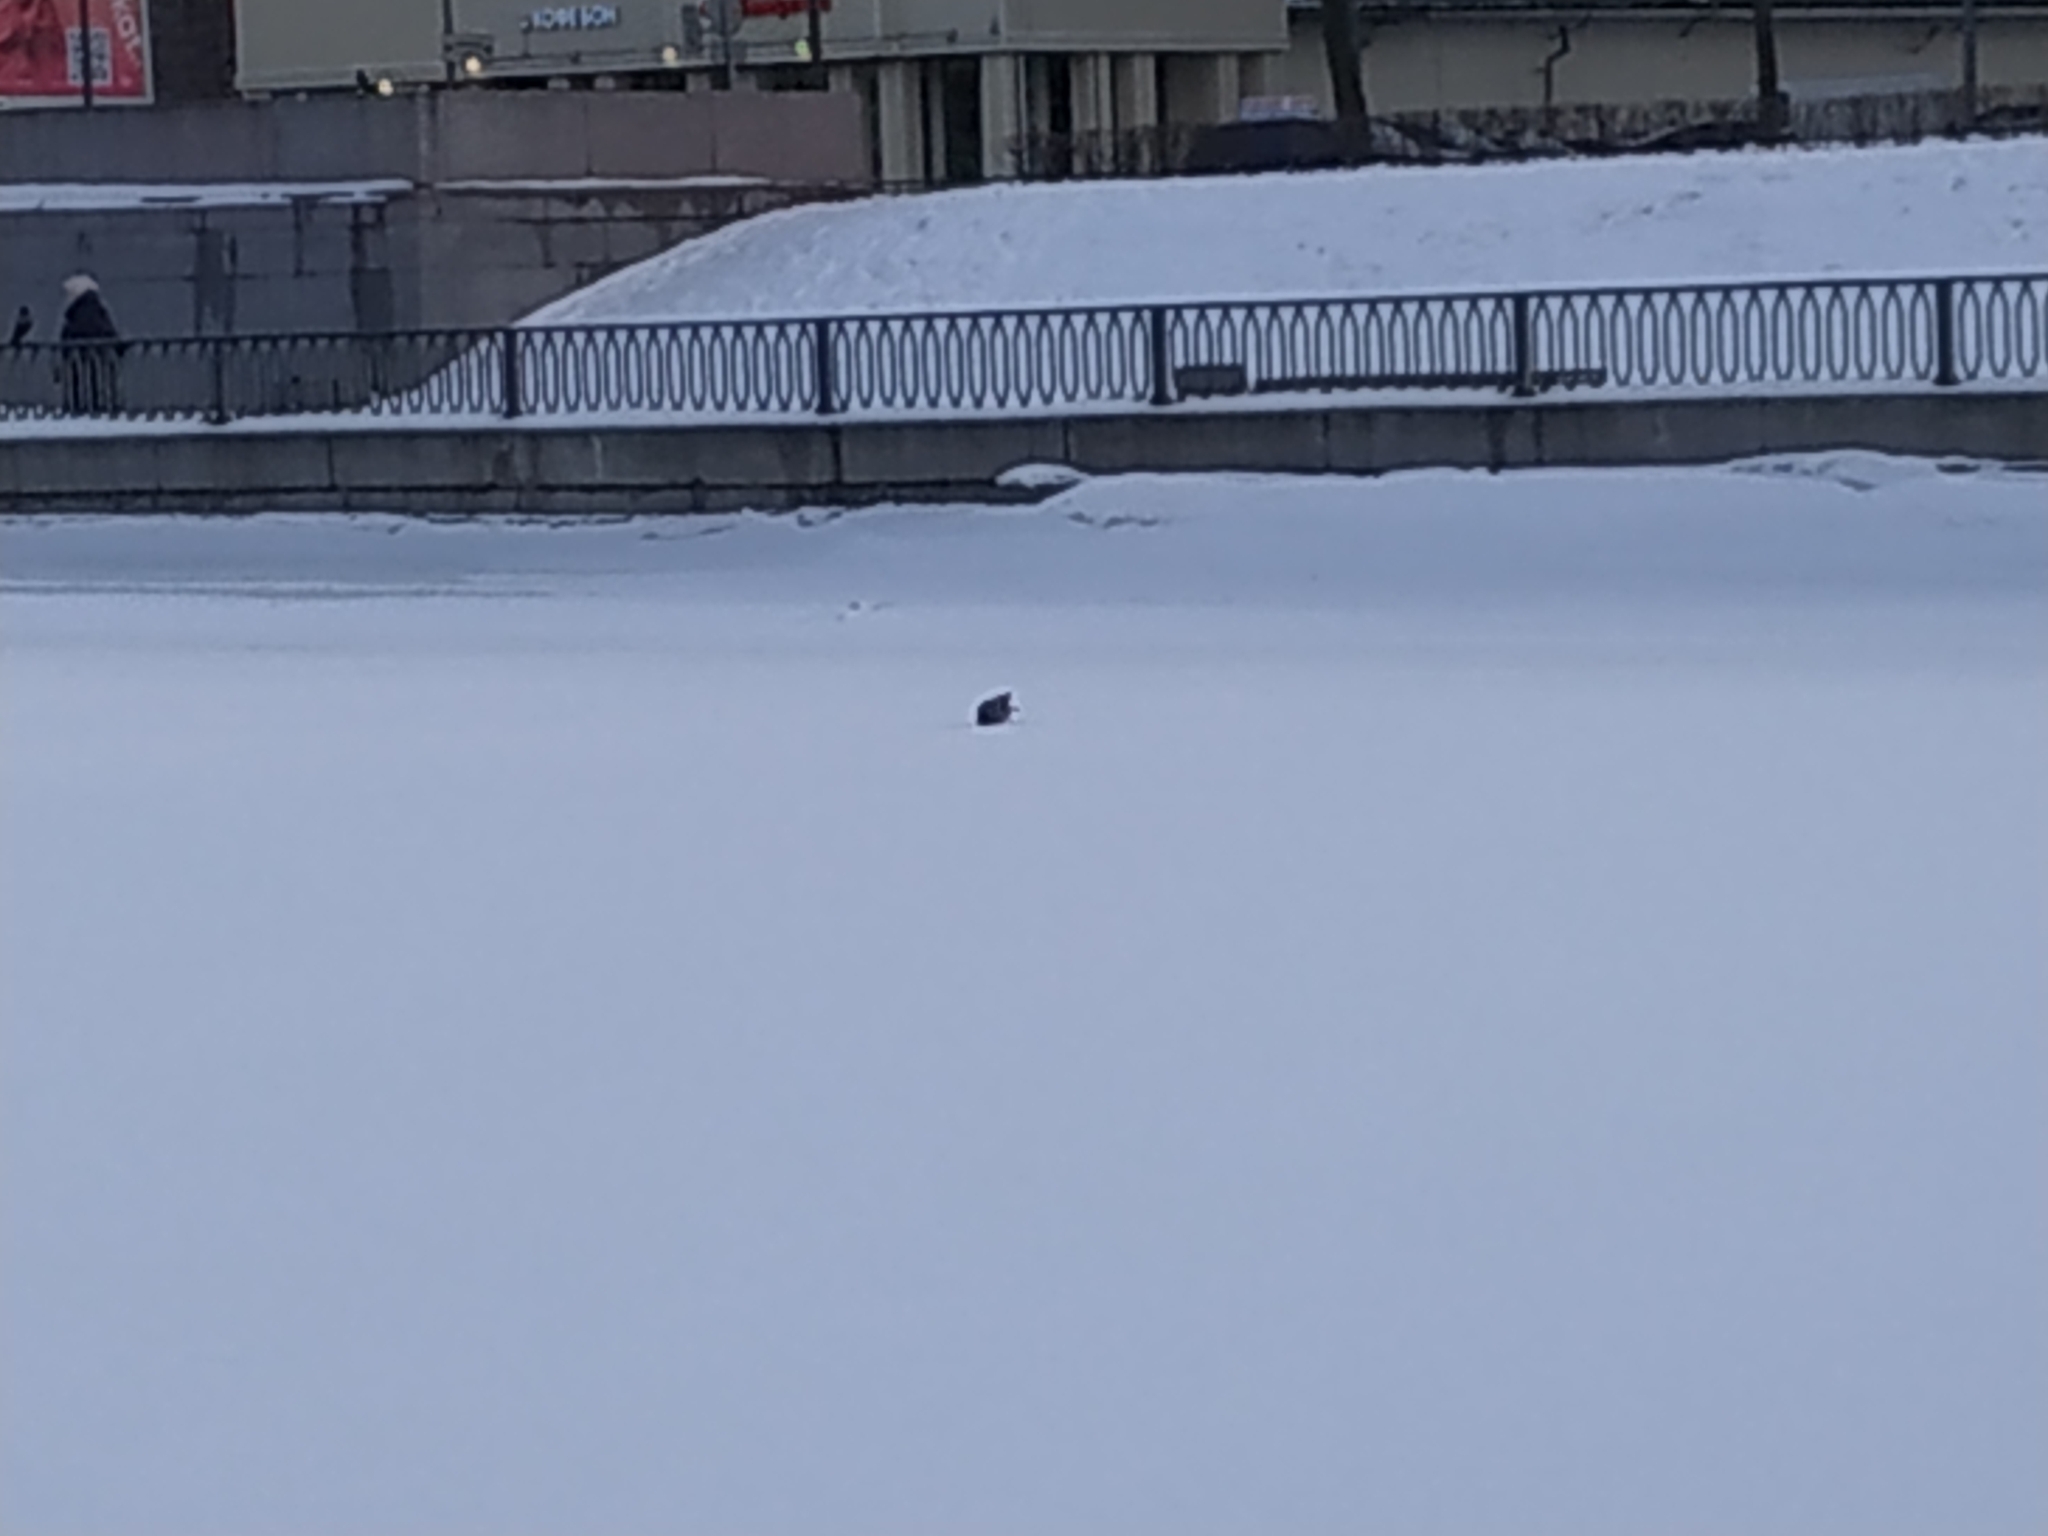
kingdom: Animalia
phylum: Chordata
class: Aves
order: Passeriformes
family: Corvidae
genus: Corvus
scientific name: Corvus cornix
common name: Hooded crow
